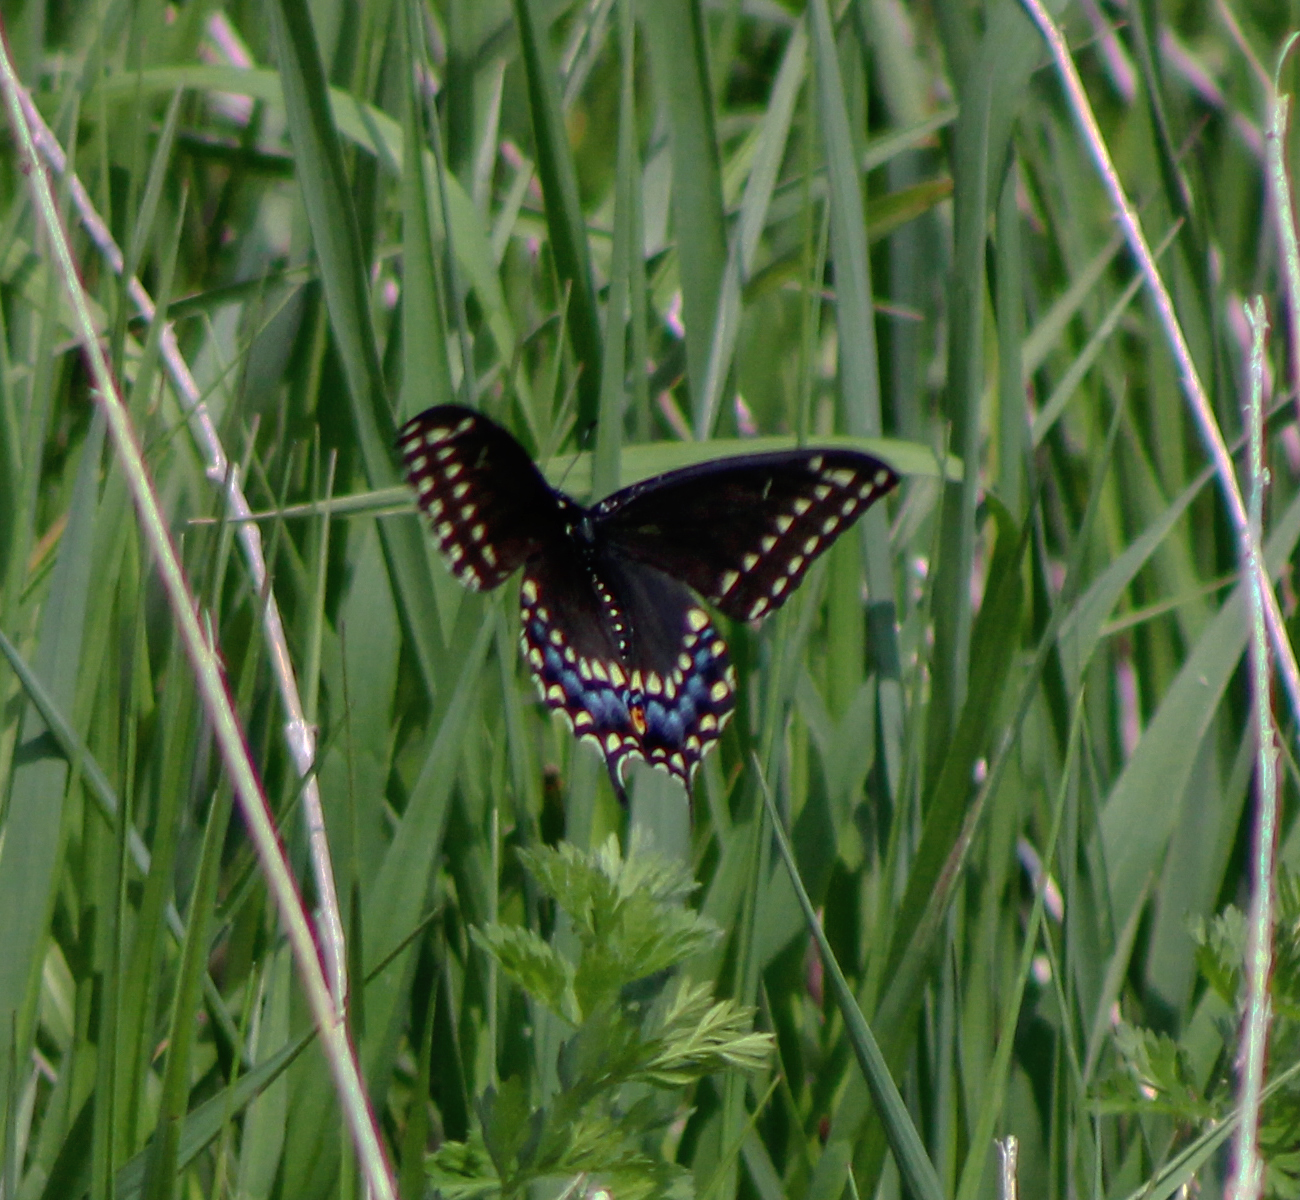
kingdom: Animalia
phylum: Arthropoda
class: Insecta
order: Lepidoptera
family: Papilionidae
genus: Papilio
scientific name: Papilio polyxenes
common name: Black swallowtail
